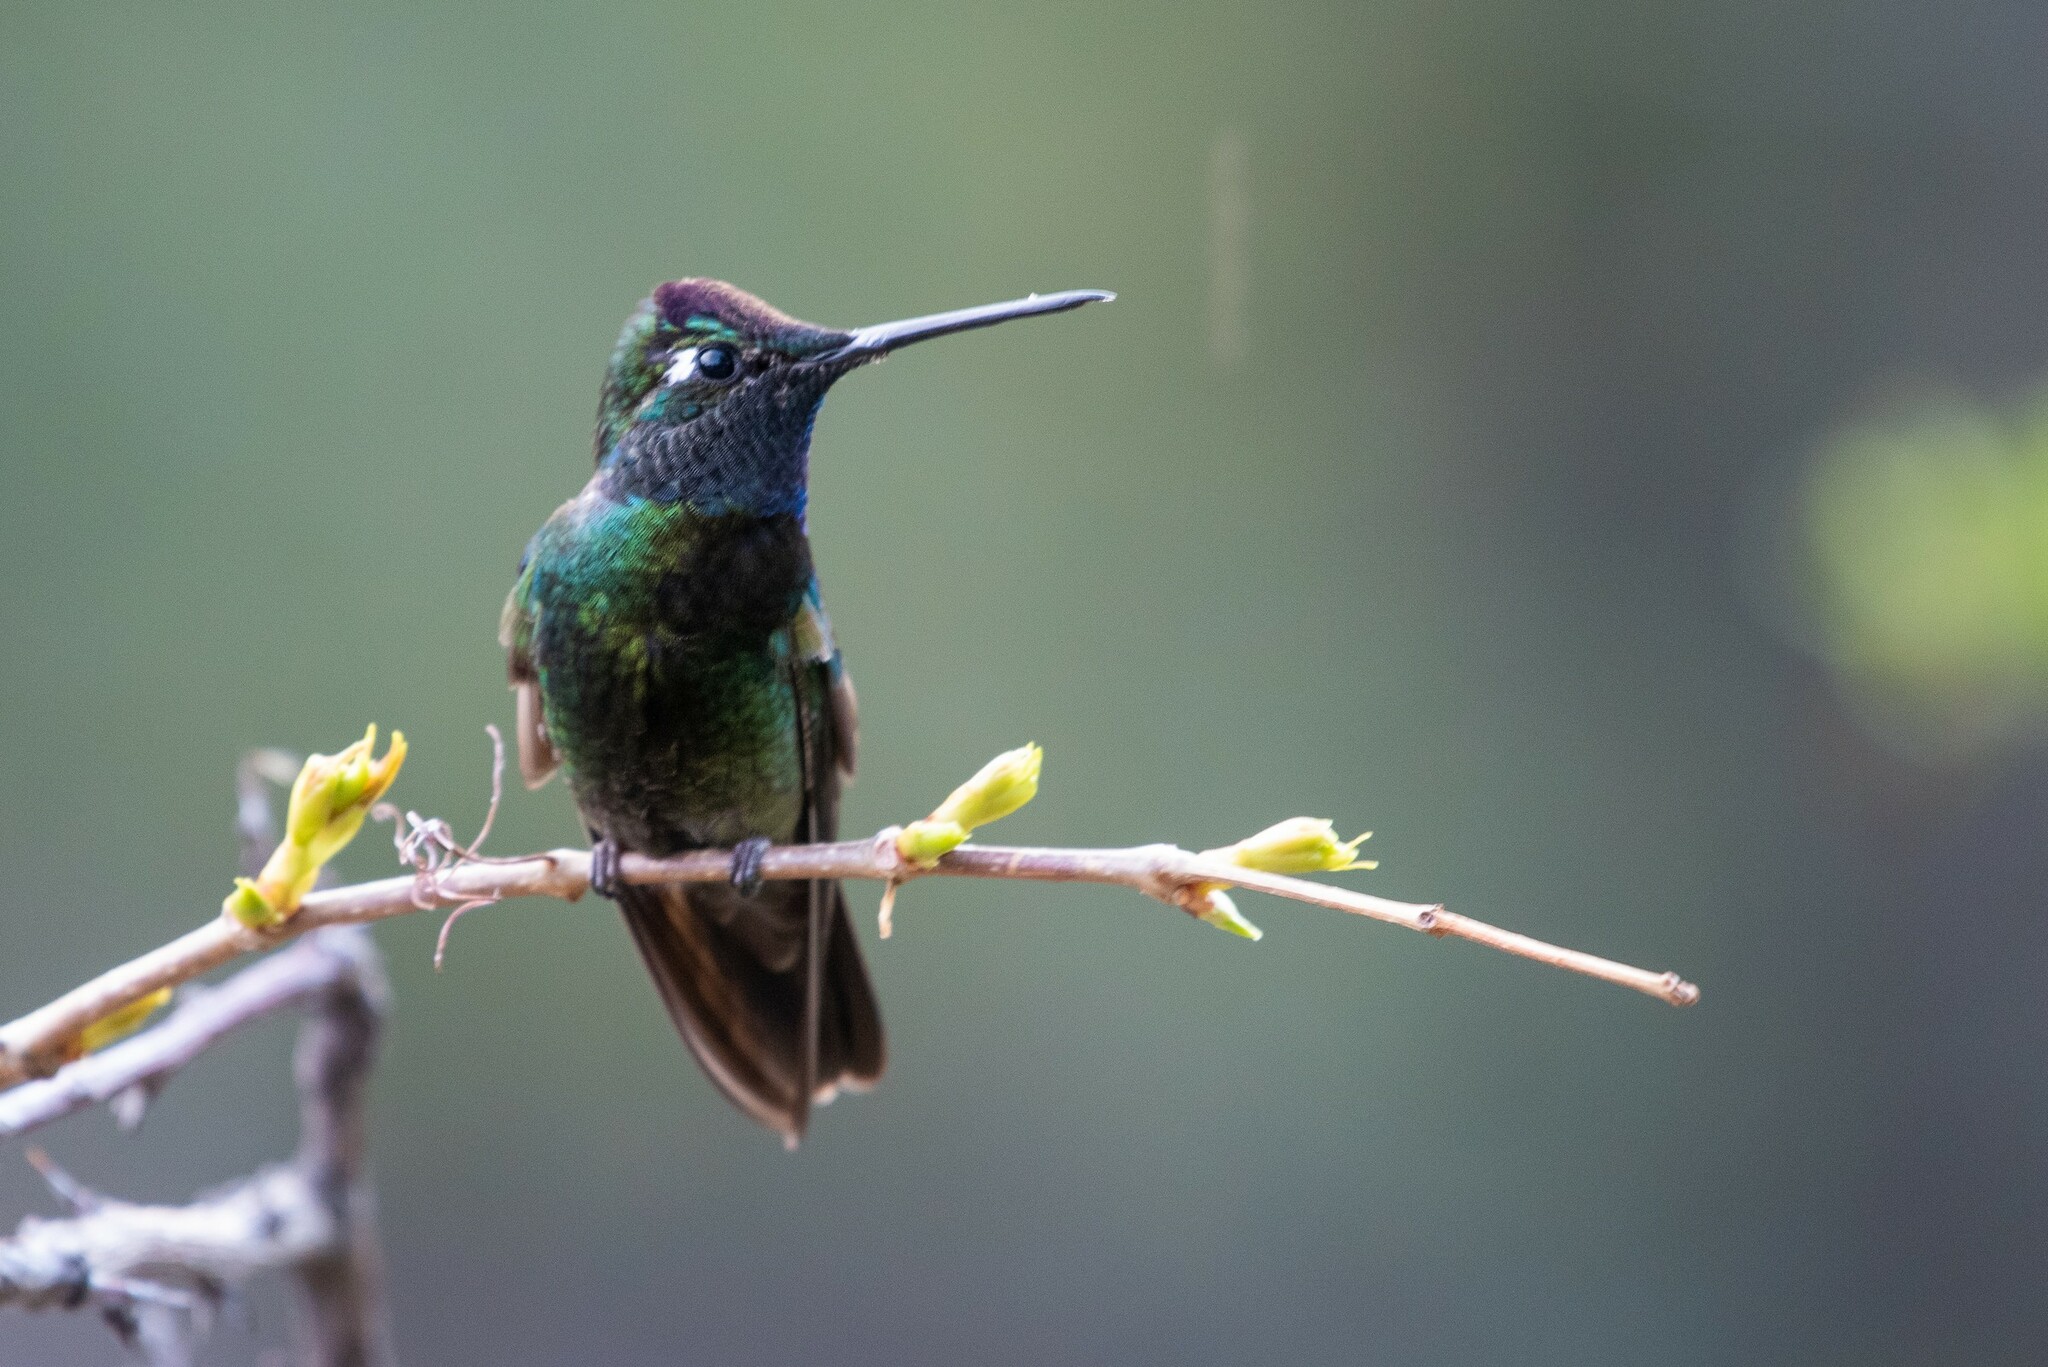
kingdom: Animalia
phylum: Chordata
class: Aves
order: Apodiformes
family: Trochilidae
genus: Eugenes
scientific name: Eugenes fulgens
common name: Magnificent hummingbird
